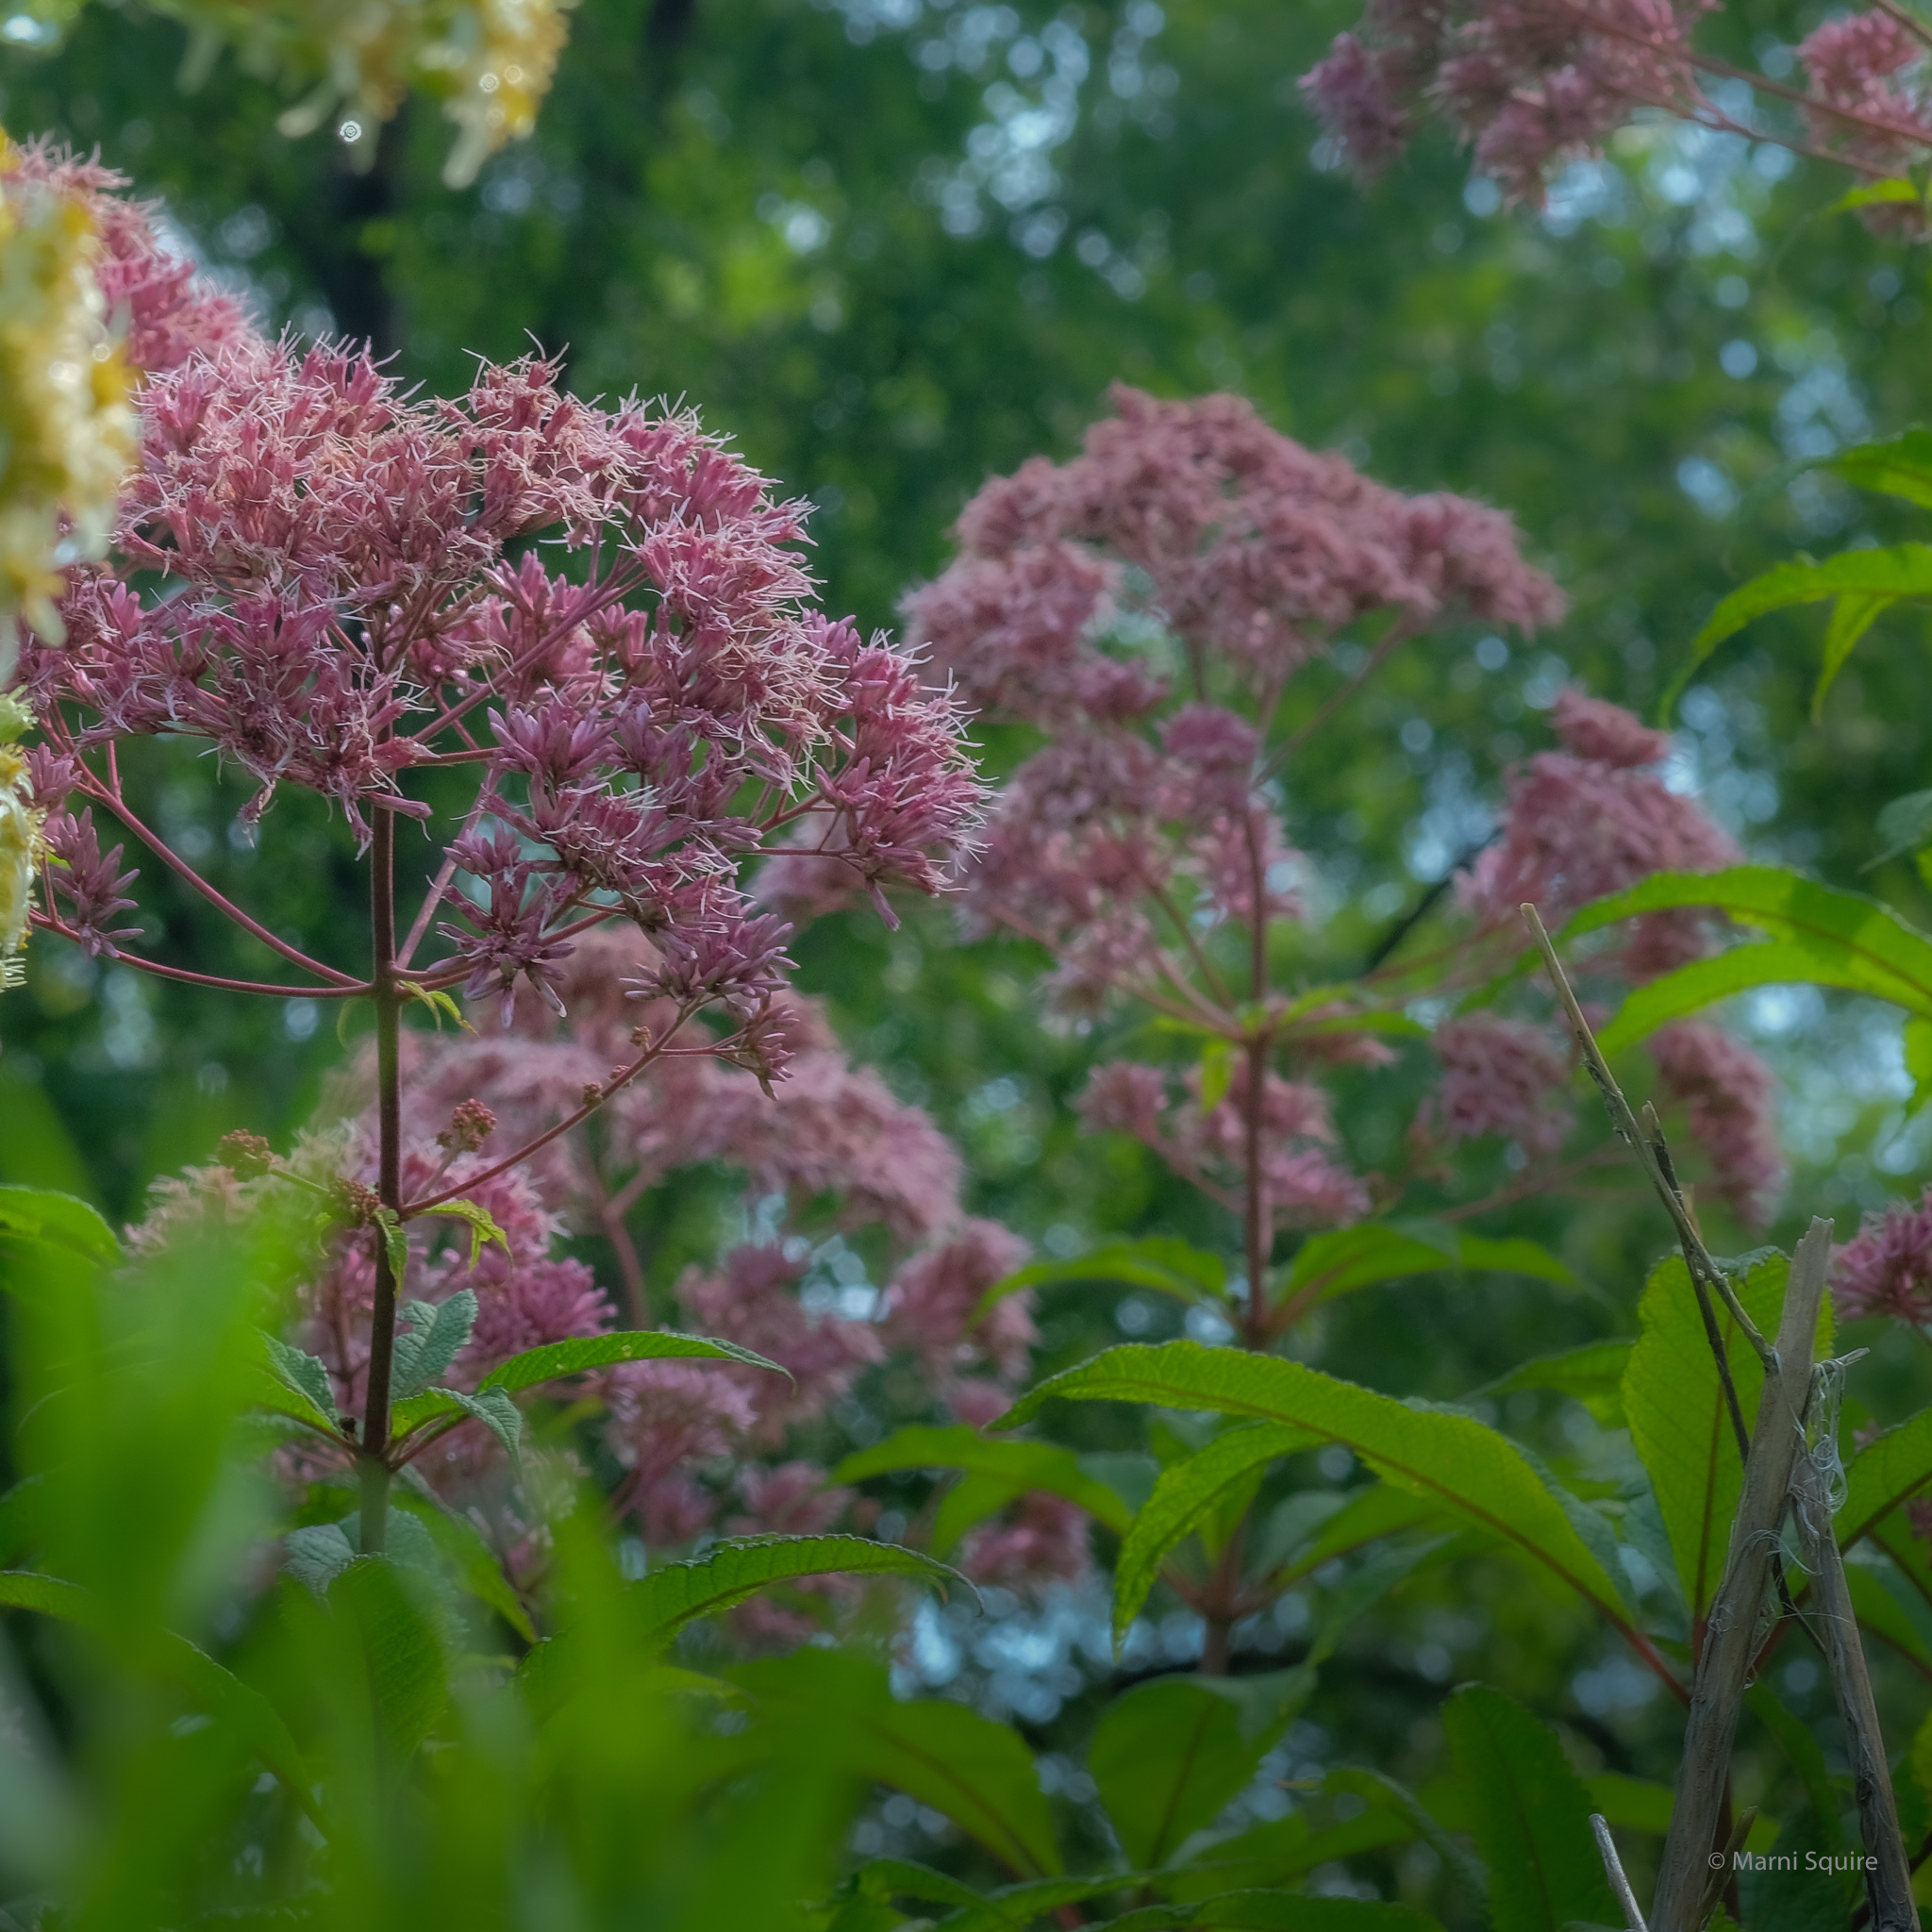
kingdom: Plantae
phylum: Tracheophyta
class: Magnoliopsida
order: Asterales
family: Asteraceae
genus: Eutrochium
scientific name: Eutrochium maculatum
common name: Spotted joe pye weed
